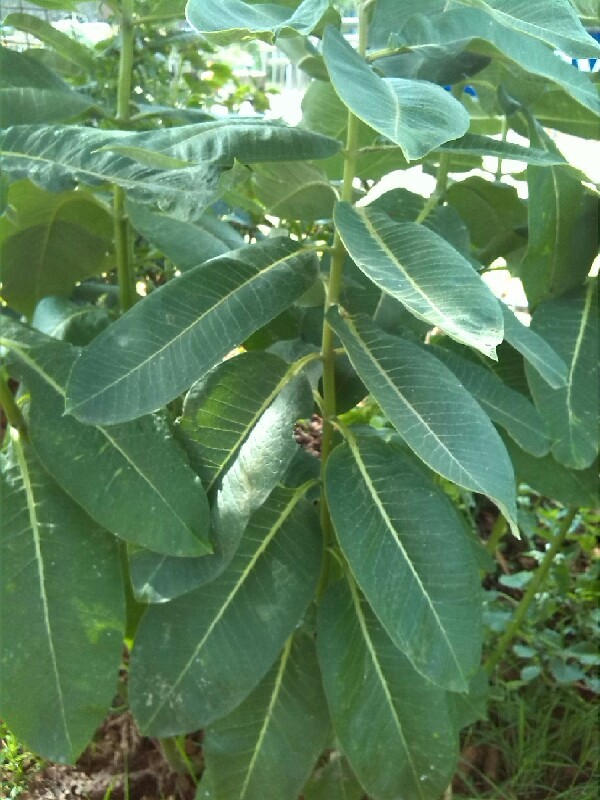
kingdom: Plantae
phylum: Tracheophyta
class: Magnoliopsida
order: Gentianales
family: Apocynaceae
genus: Asclepias
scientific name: Asclepias syriaca
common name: Common milkweed
